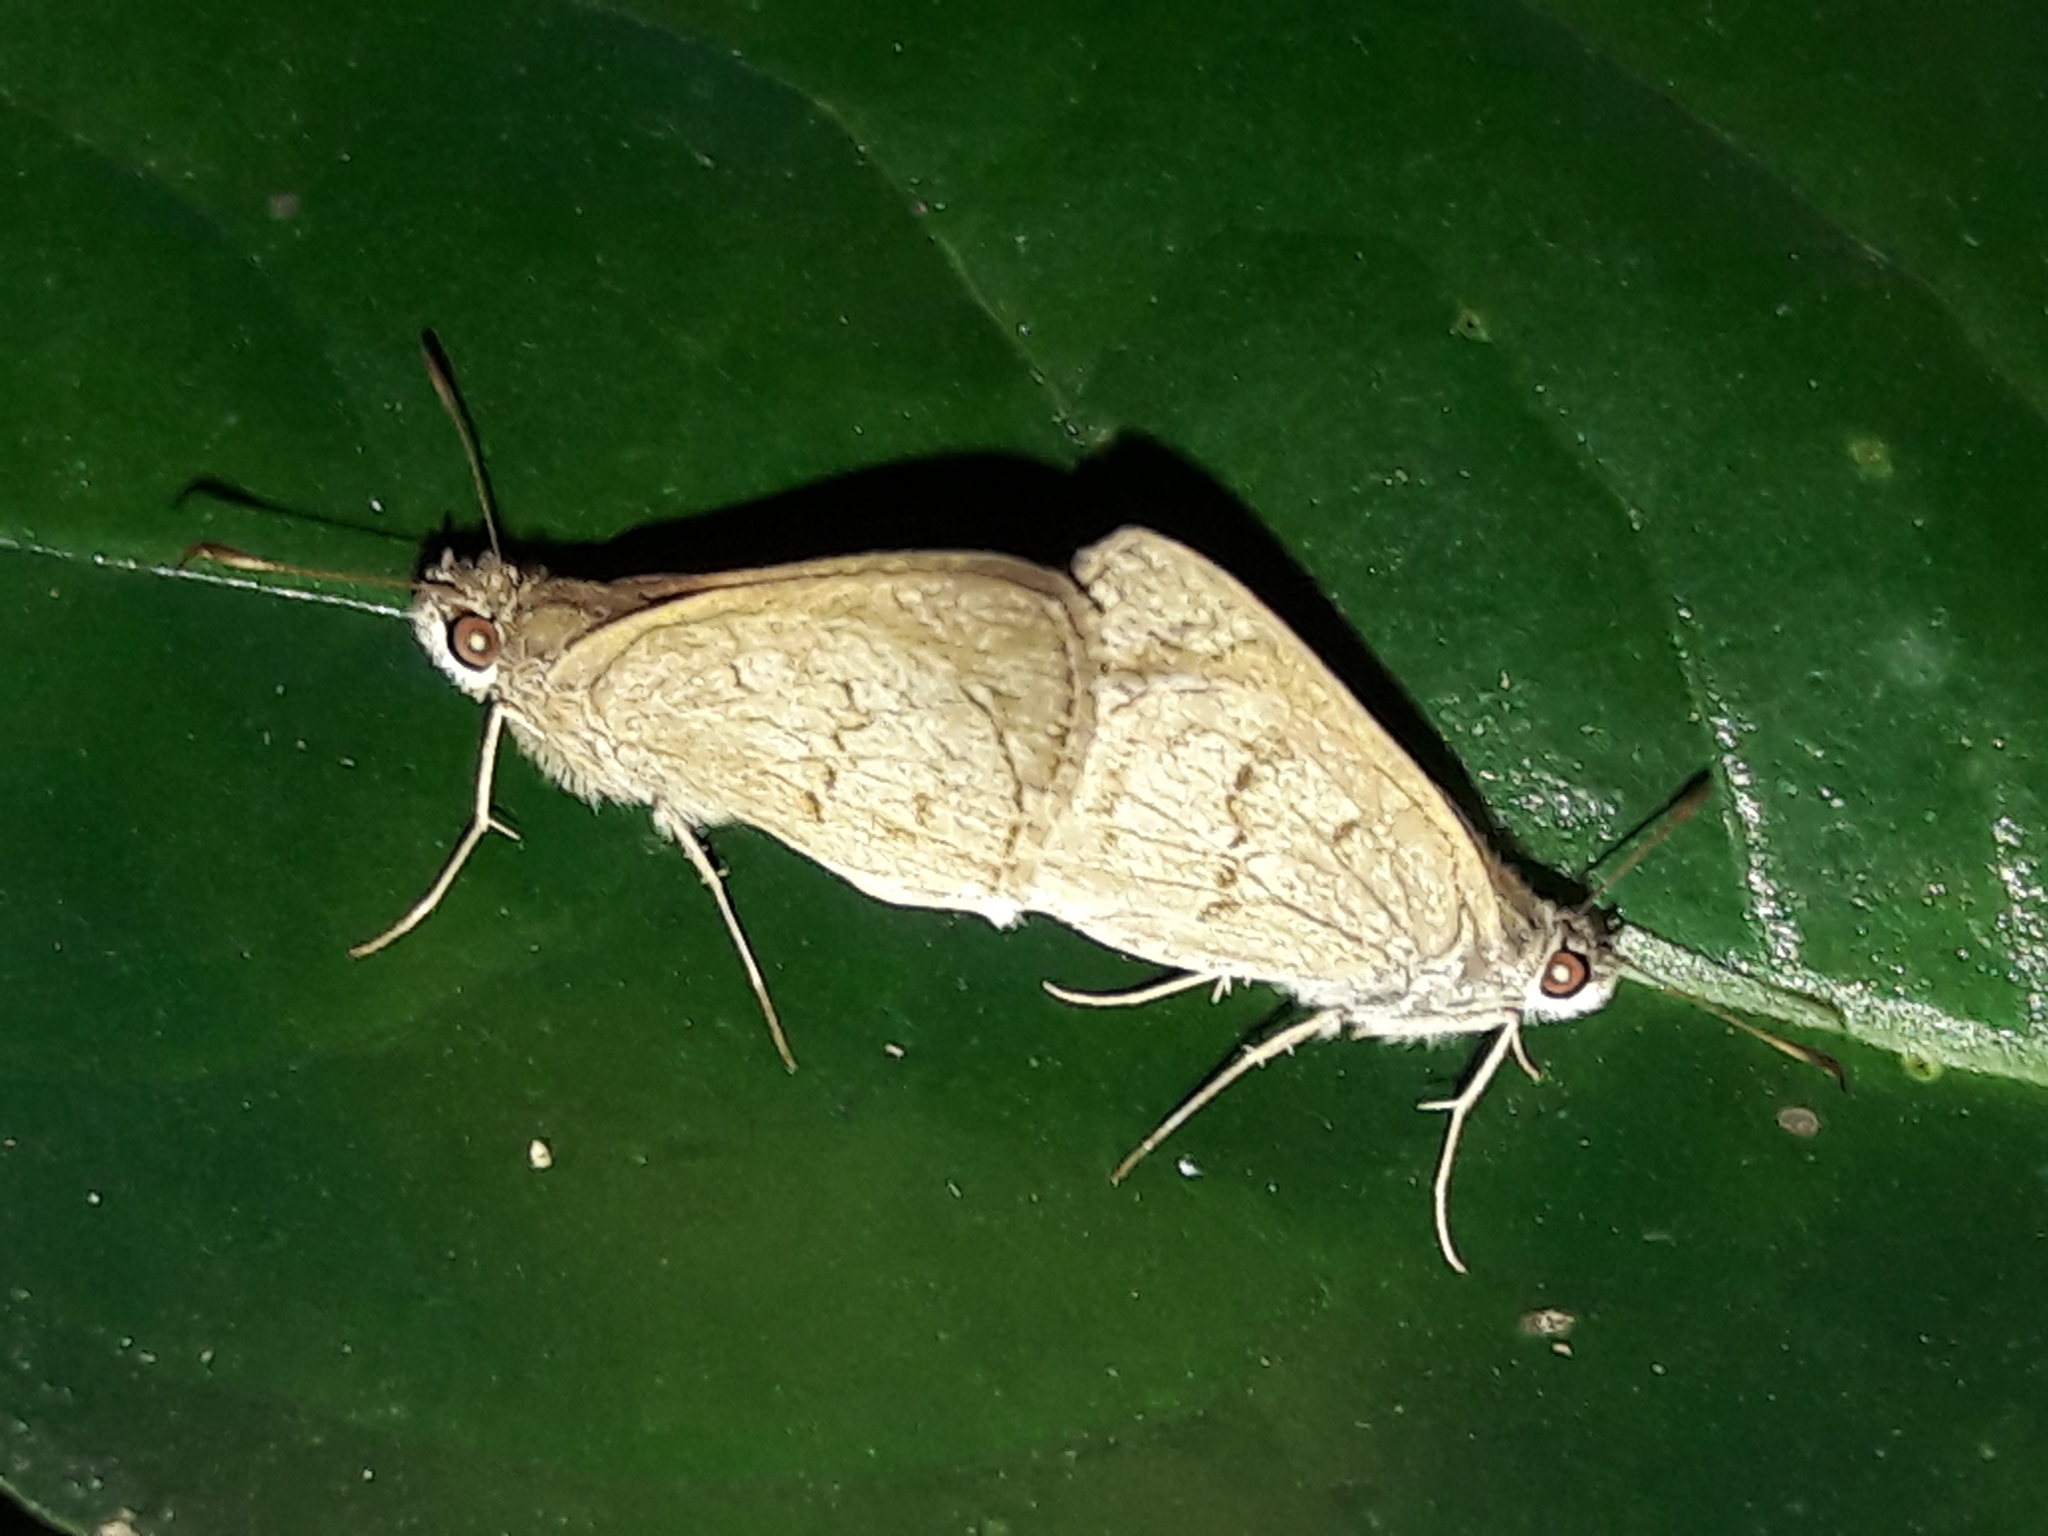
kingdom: Animalia
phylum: Arthropoda
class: Insecta
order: Lepidoptera
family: Hesperiidae
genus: Cymaenes
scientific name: Cymaenes gisca
